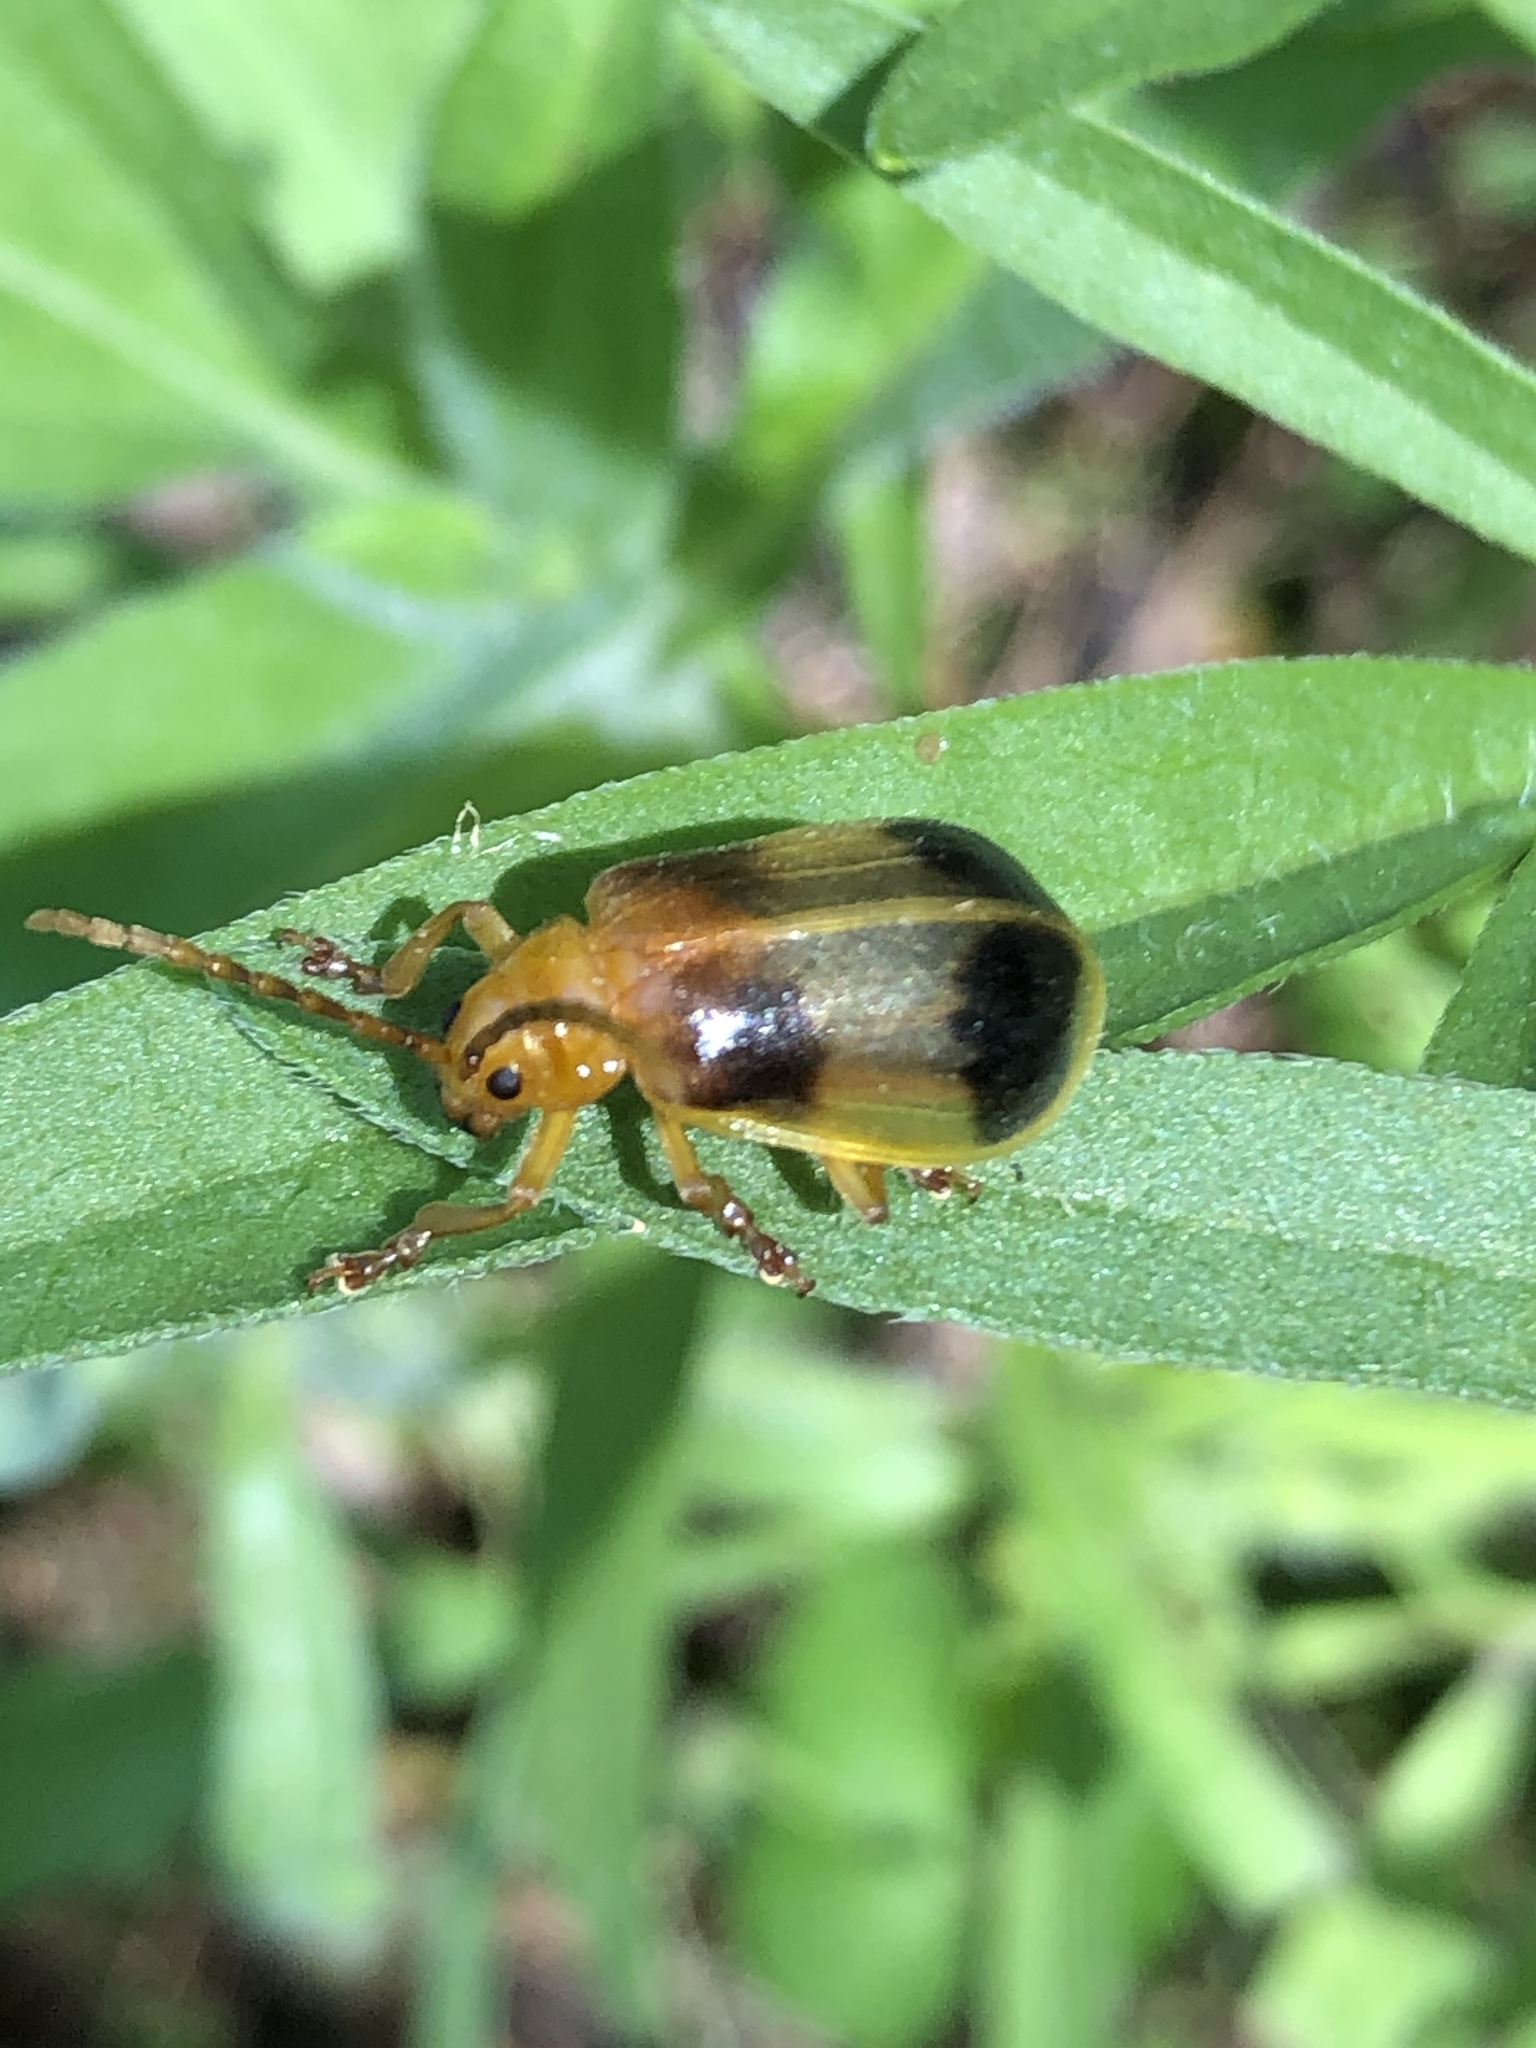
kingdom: Animalia
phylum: Arthropoda
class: Insecta
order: Coleoptera
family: Chrysomelidae
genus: Monocesta
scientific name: Monocesta coryli
